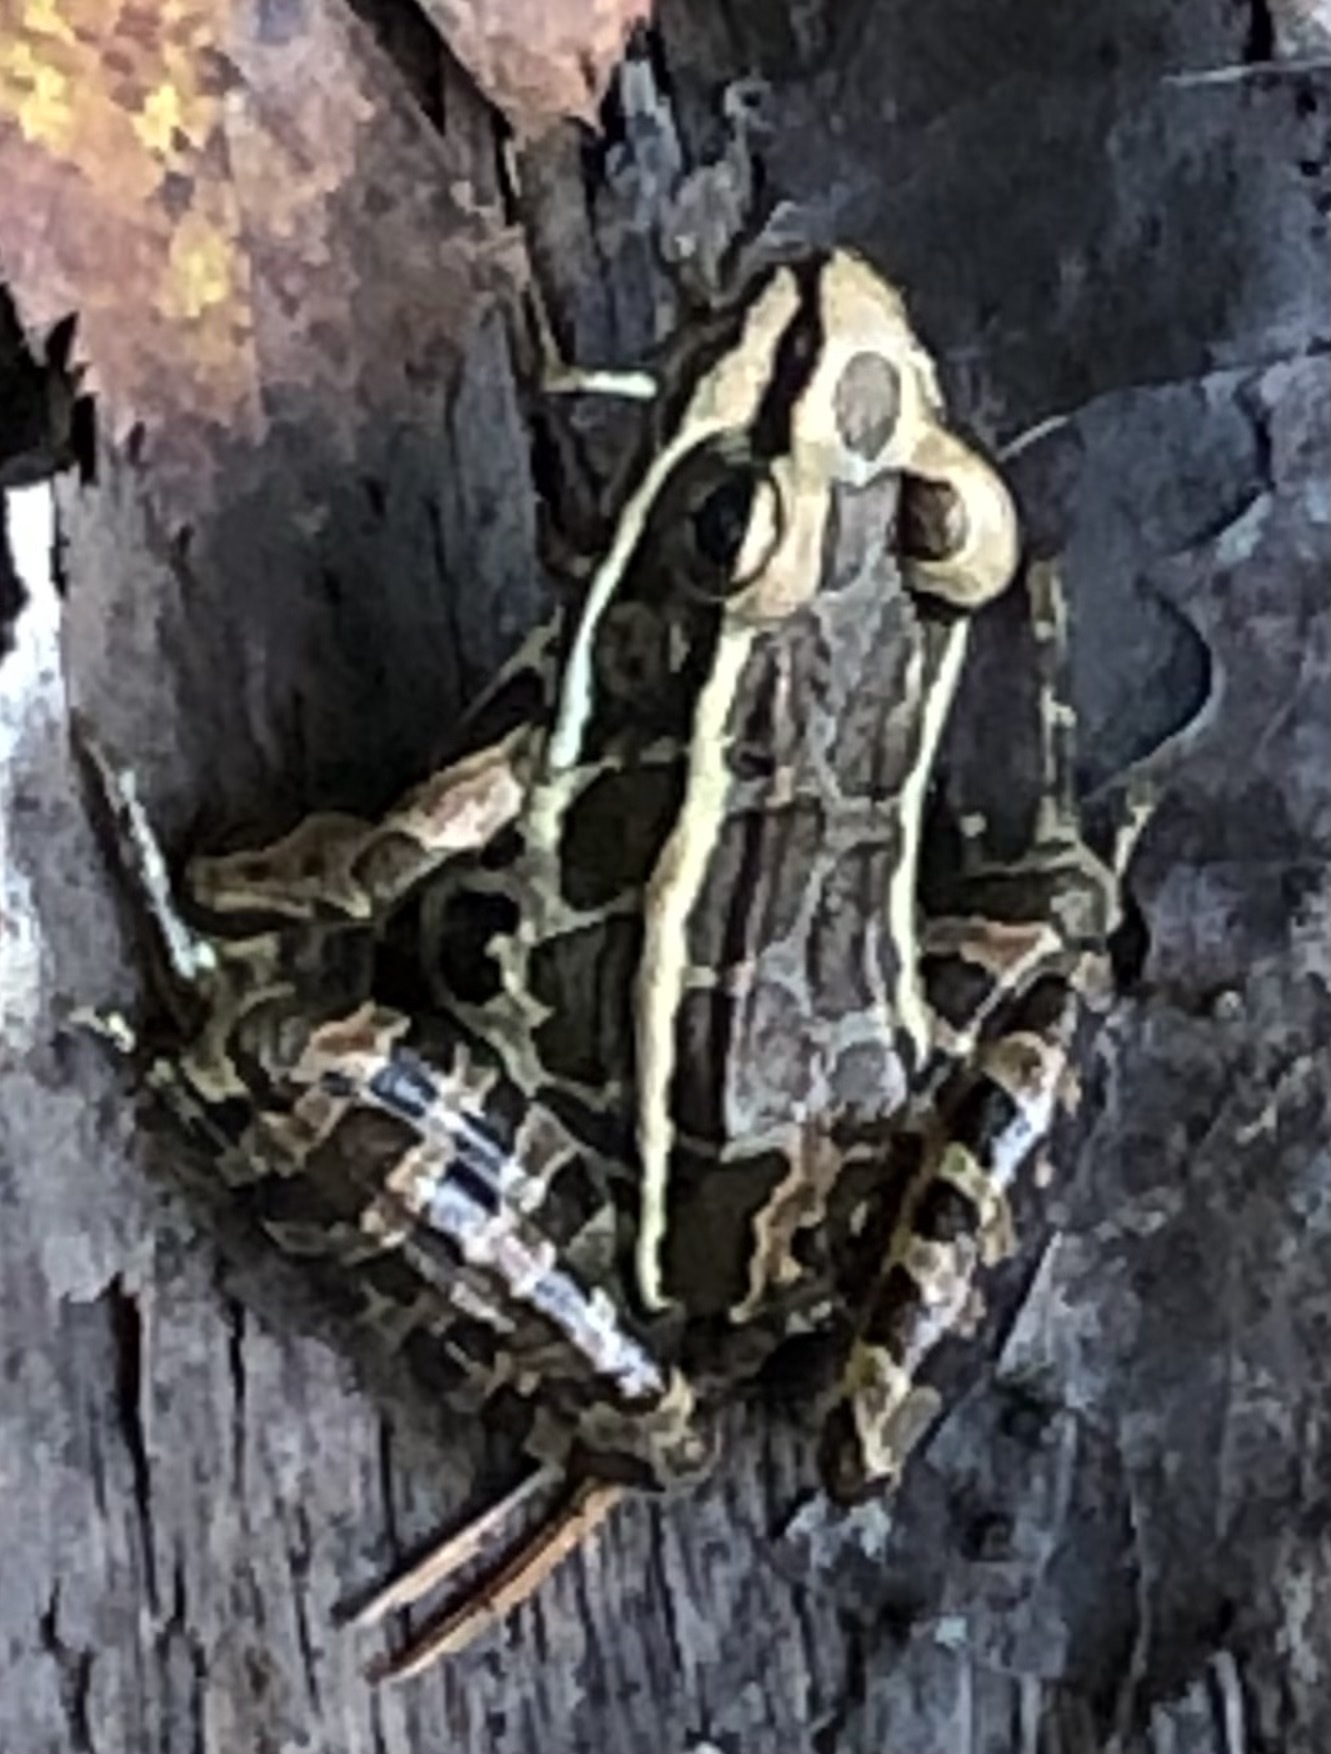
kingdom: Animalia
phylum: Chordata
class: Amphibia
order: Anura
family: Ranidae
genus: Lithobates
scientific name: Lithobates palustris
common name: Pickerel frog
